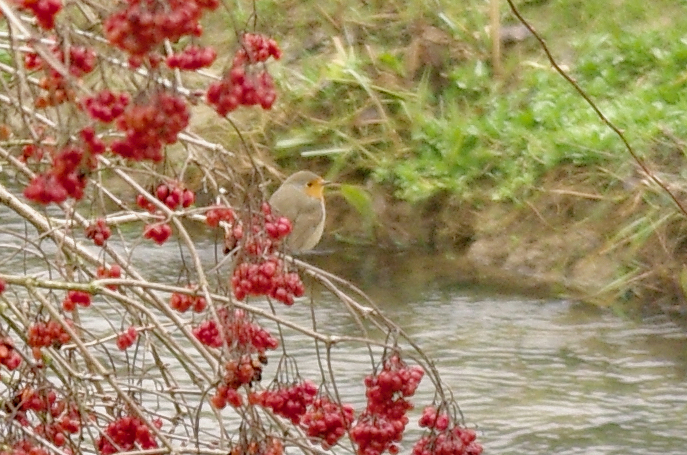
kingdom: Animalia
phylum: Chordata
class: Aves
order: Passeriformes
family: Muscicapidae
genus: Erithacus
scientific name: Erithacus rubecula
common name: European robin
